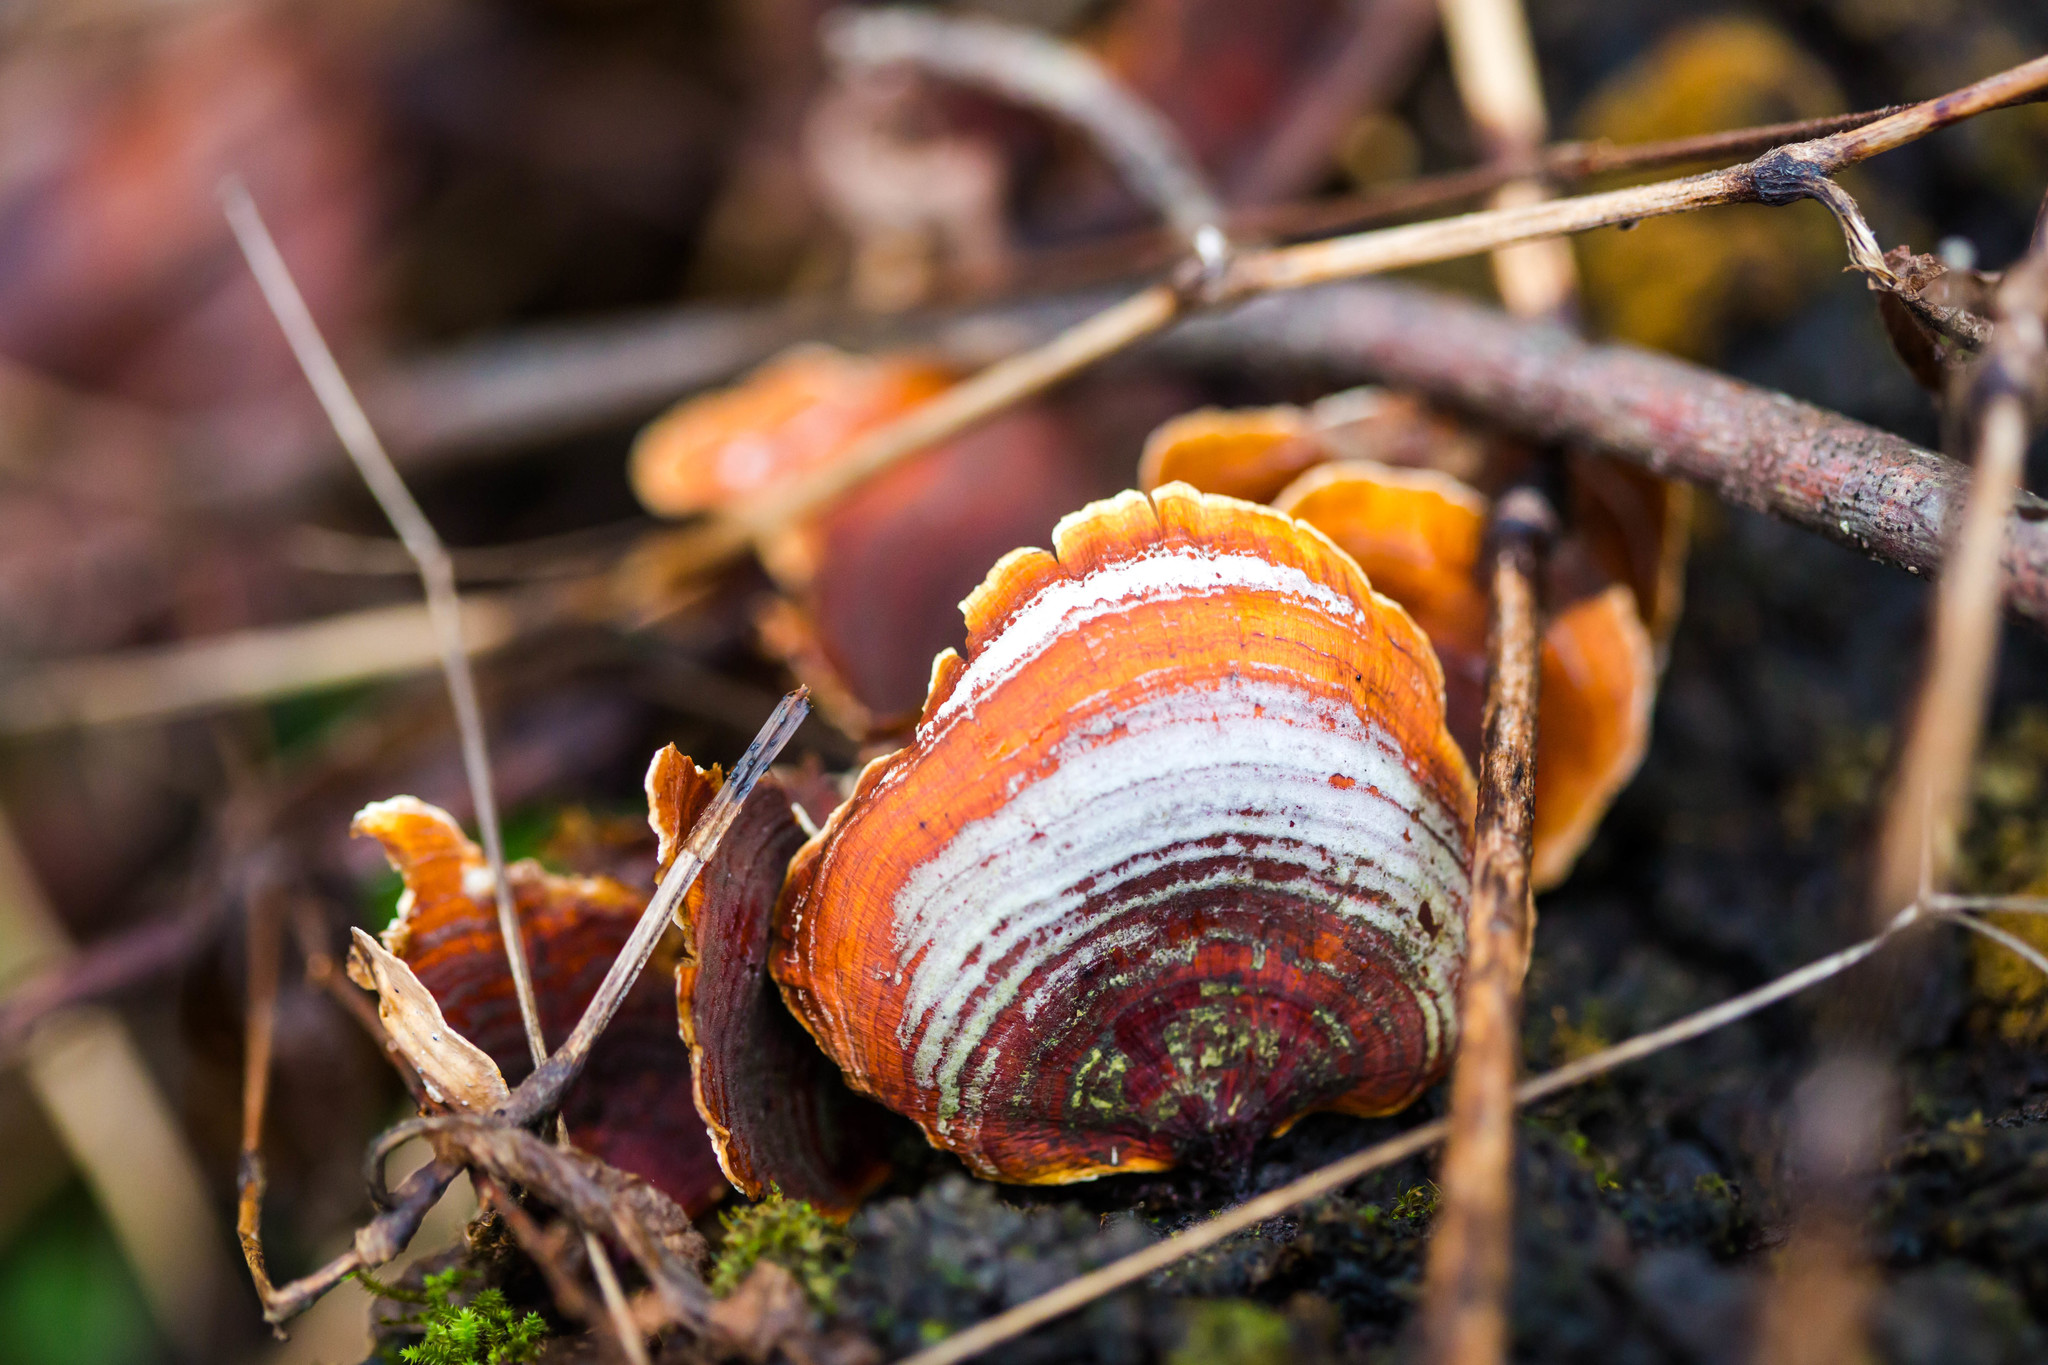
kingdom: Fungi
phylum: Basidiomycota
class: Agaricomycetes
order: Russulales
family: Stereaceae
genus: Stereum
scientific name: Stereum hirsutum
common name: Hairy curtain crust
